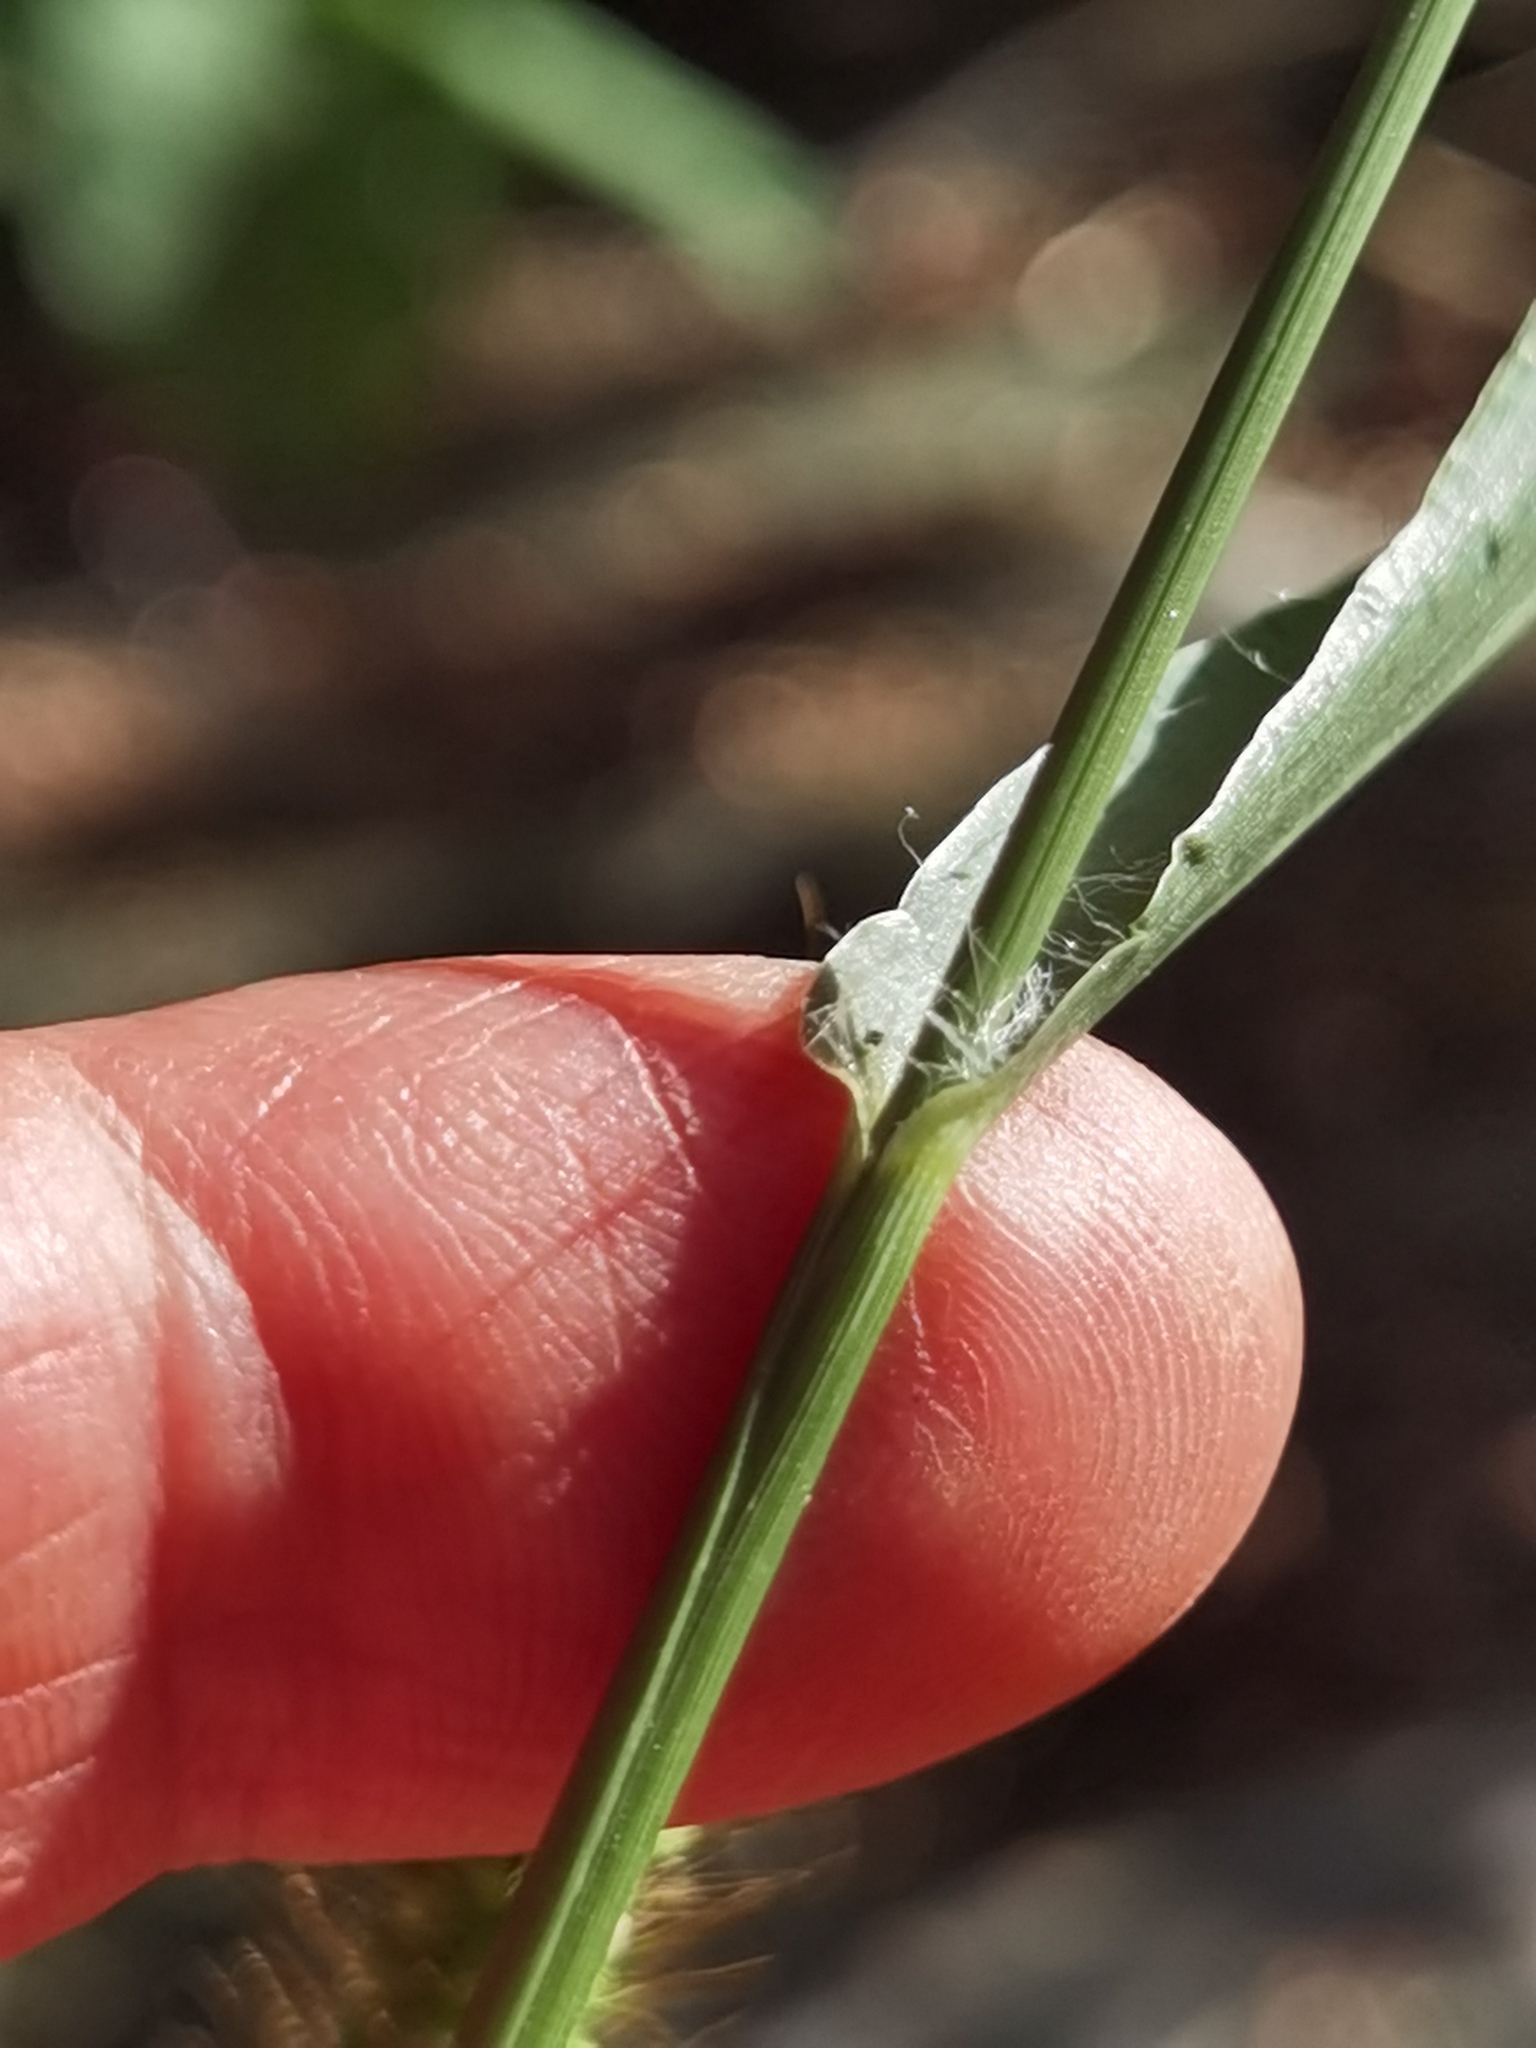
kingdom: Plantae
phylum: Tracheophyta
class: Liliopsida
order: Poales
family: Poaceae
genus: Setaria
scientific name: Setaria pumila
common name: Yellow bristle-grass
